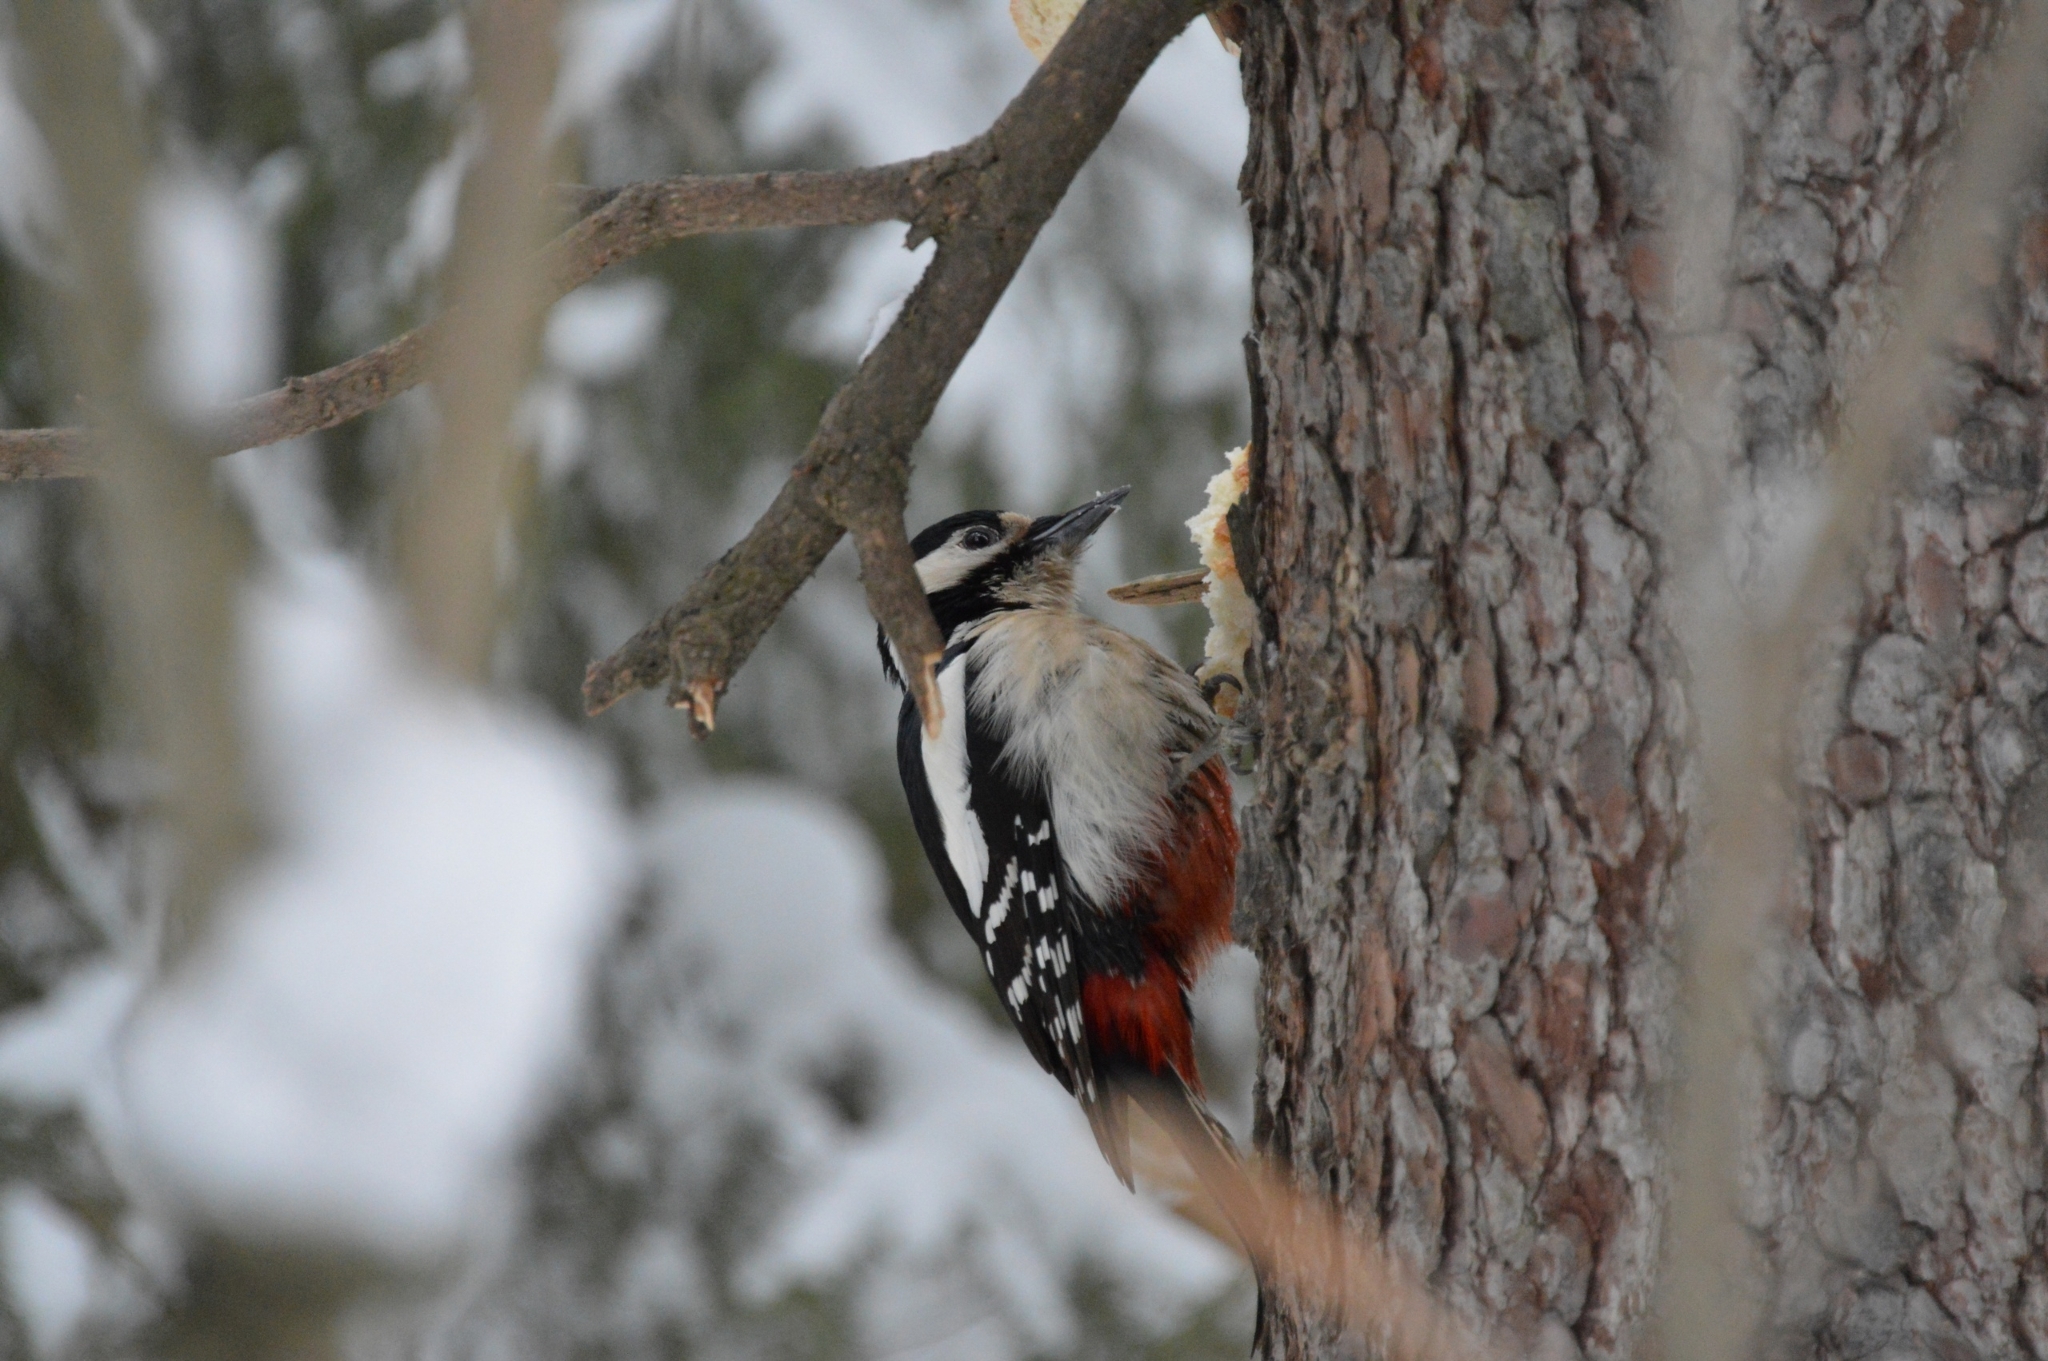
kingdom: Animalia
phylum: Chordata
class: Aves
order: Piciformes
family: Picidae
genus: Dendrocopos
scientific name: Dendrocopos major
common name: Great spotted woodpecker
